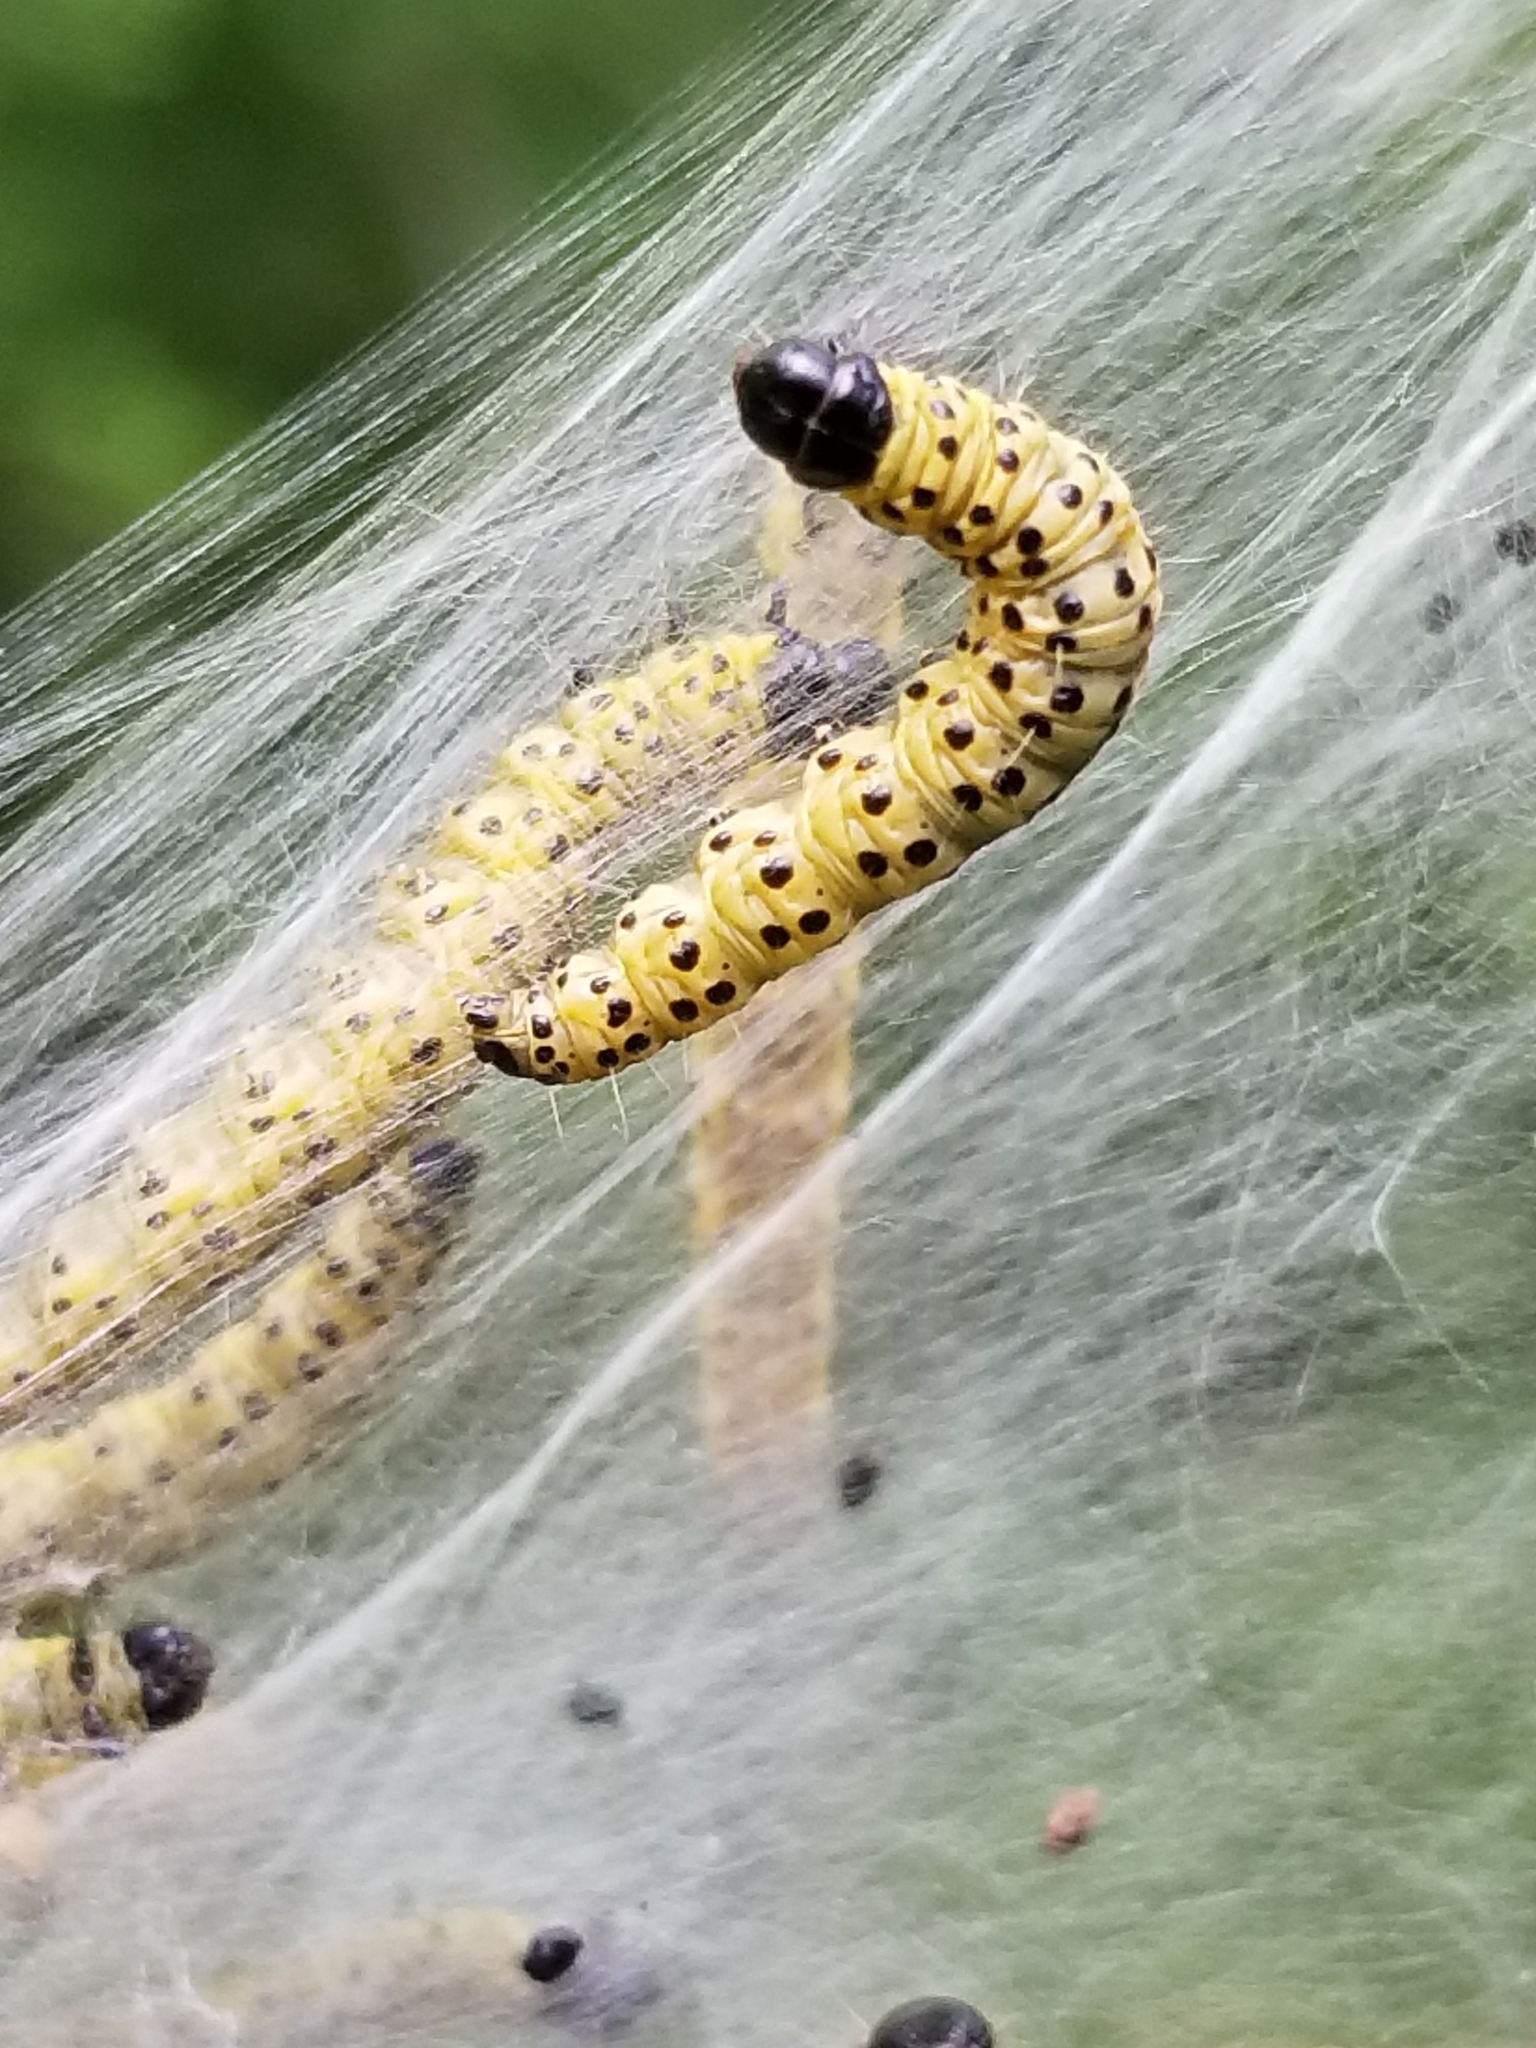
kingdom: Animalia
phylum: Arthropoda
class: Insecta
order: Lepidoptera
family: Tortricidae
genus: Archips
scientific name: Archips rileyana
